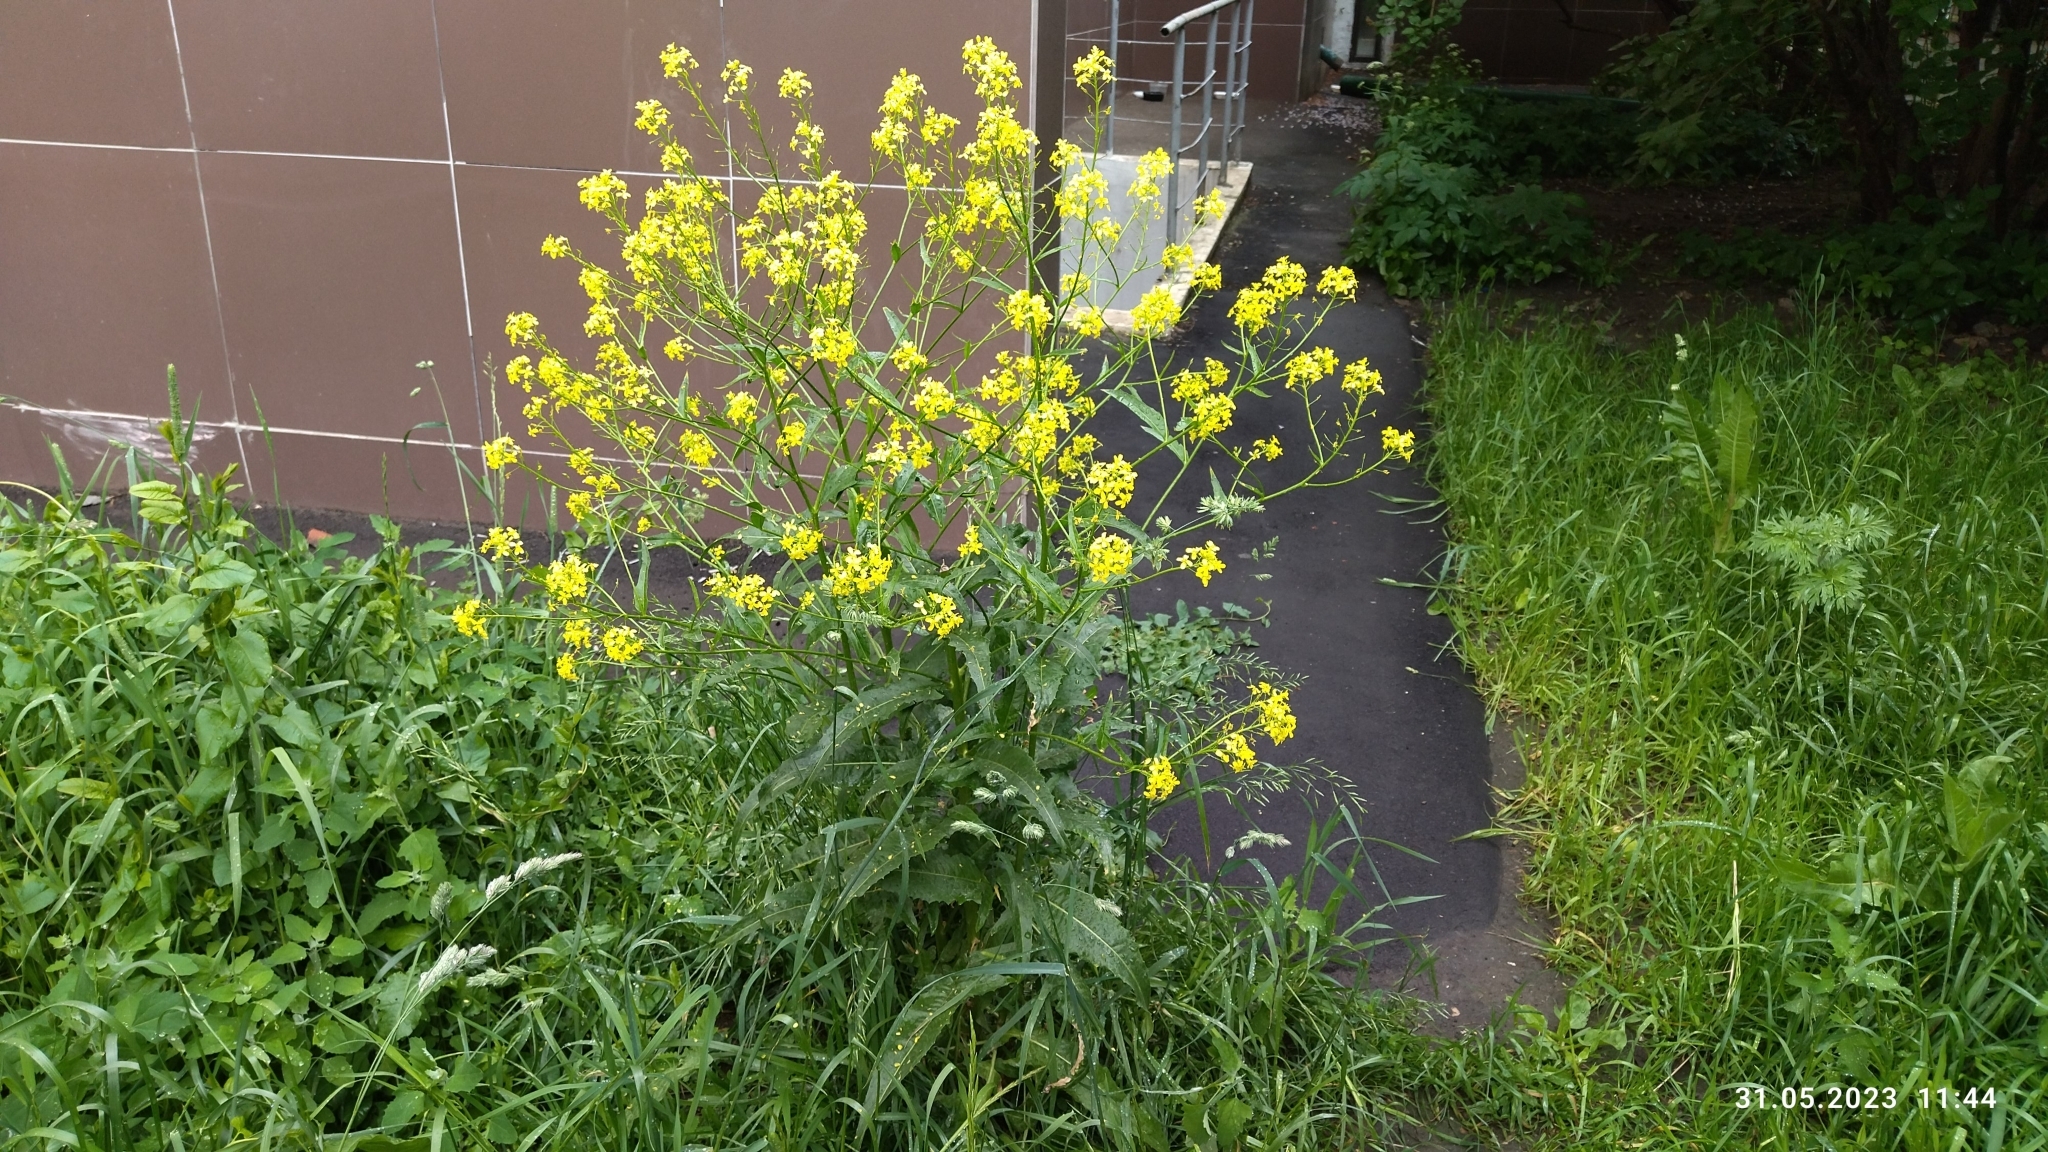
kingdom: Plantae
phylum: Tracheophyta
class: Magnoliopsida
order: Brassicales
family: Brassicaceae
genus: Bunias
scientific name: Bunias orientalis
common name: Warty-cabbage
